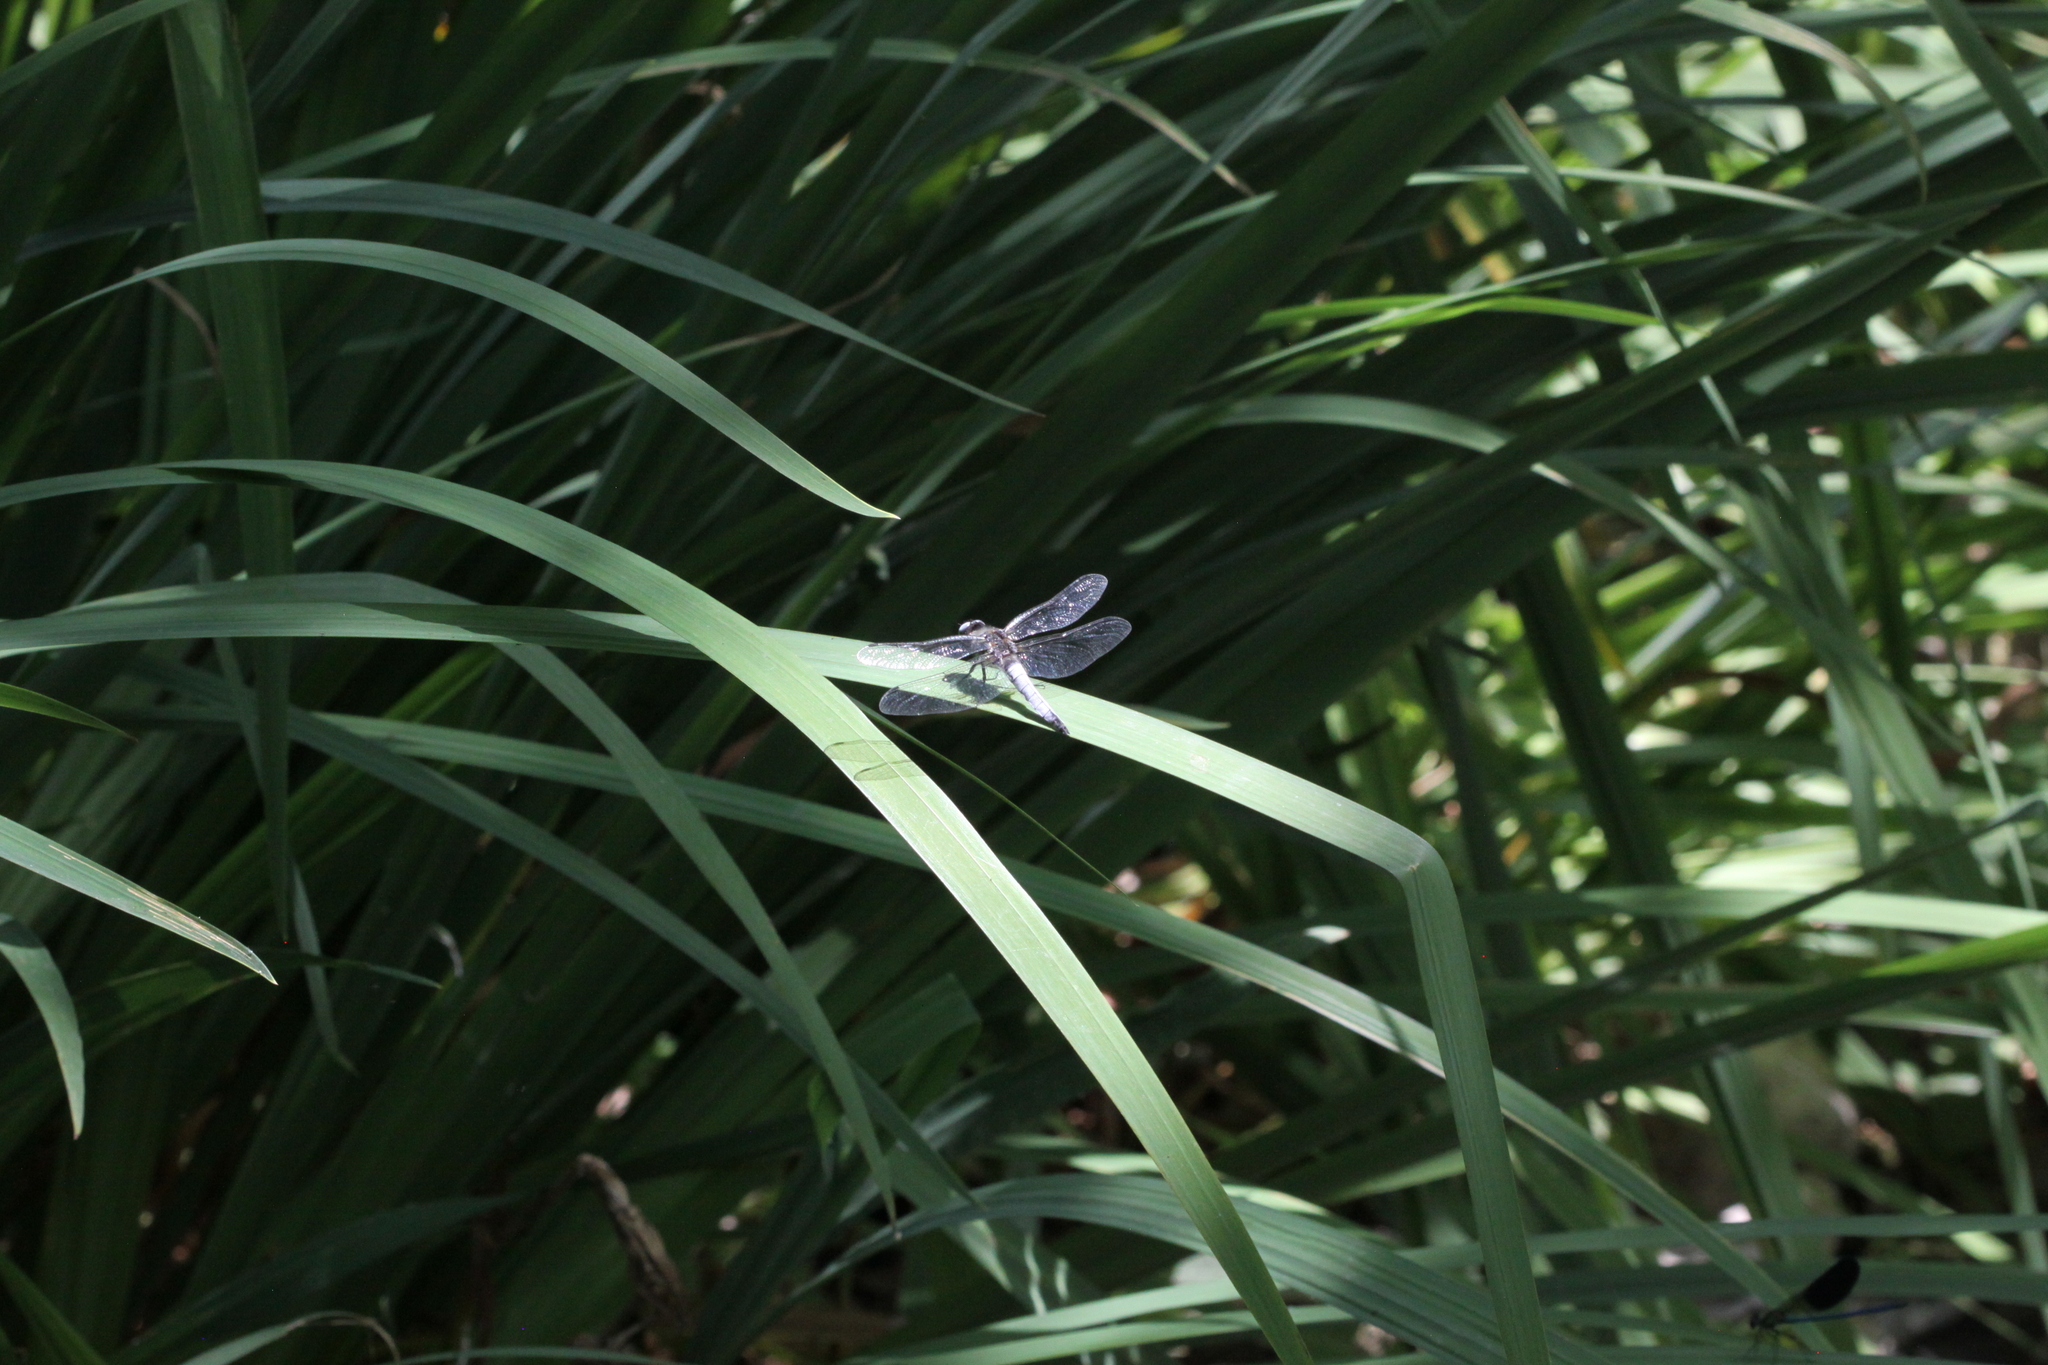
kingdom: Animalia
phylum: Arthropoda
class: Insecta
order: Odonata
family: Libellulidae
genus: Libellula
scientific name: Libellula fulva
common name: Blue chaser
